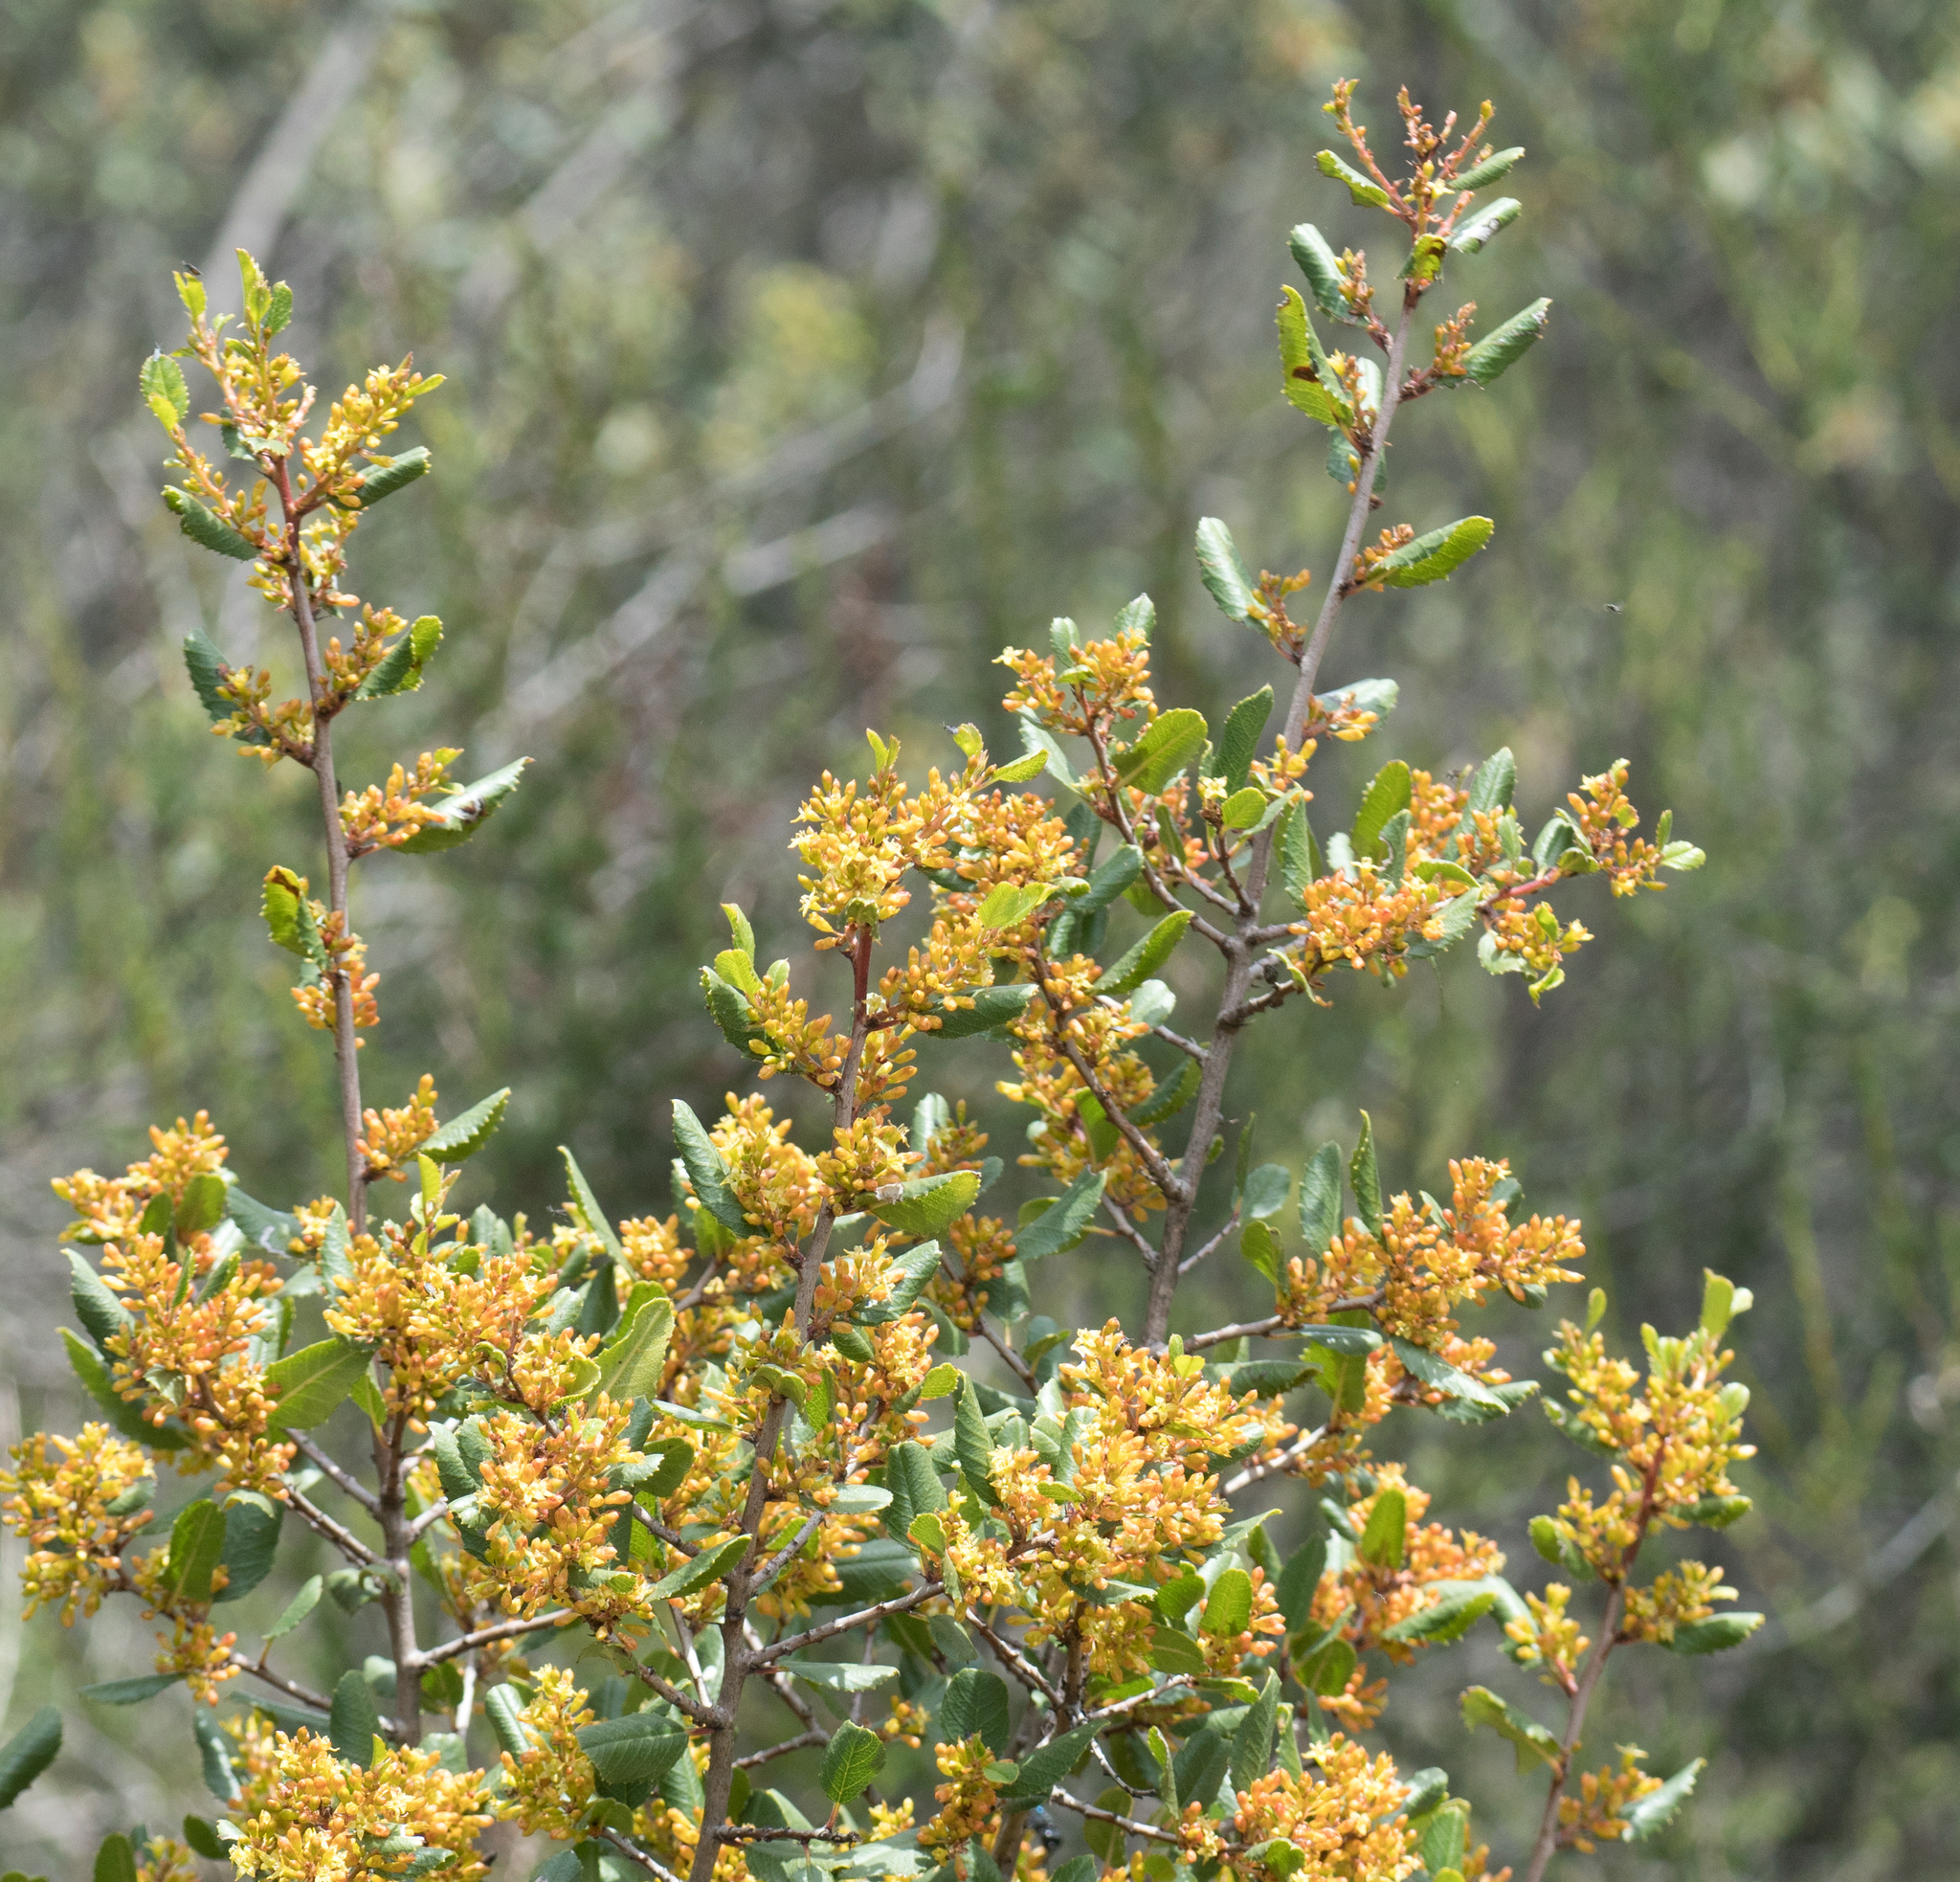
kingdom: Plantae
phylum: Tracheophyta
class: Magnoliopsida
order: Rosales
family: Rhamnaceae
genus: Endotropis
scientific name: Endotropis crocea
